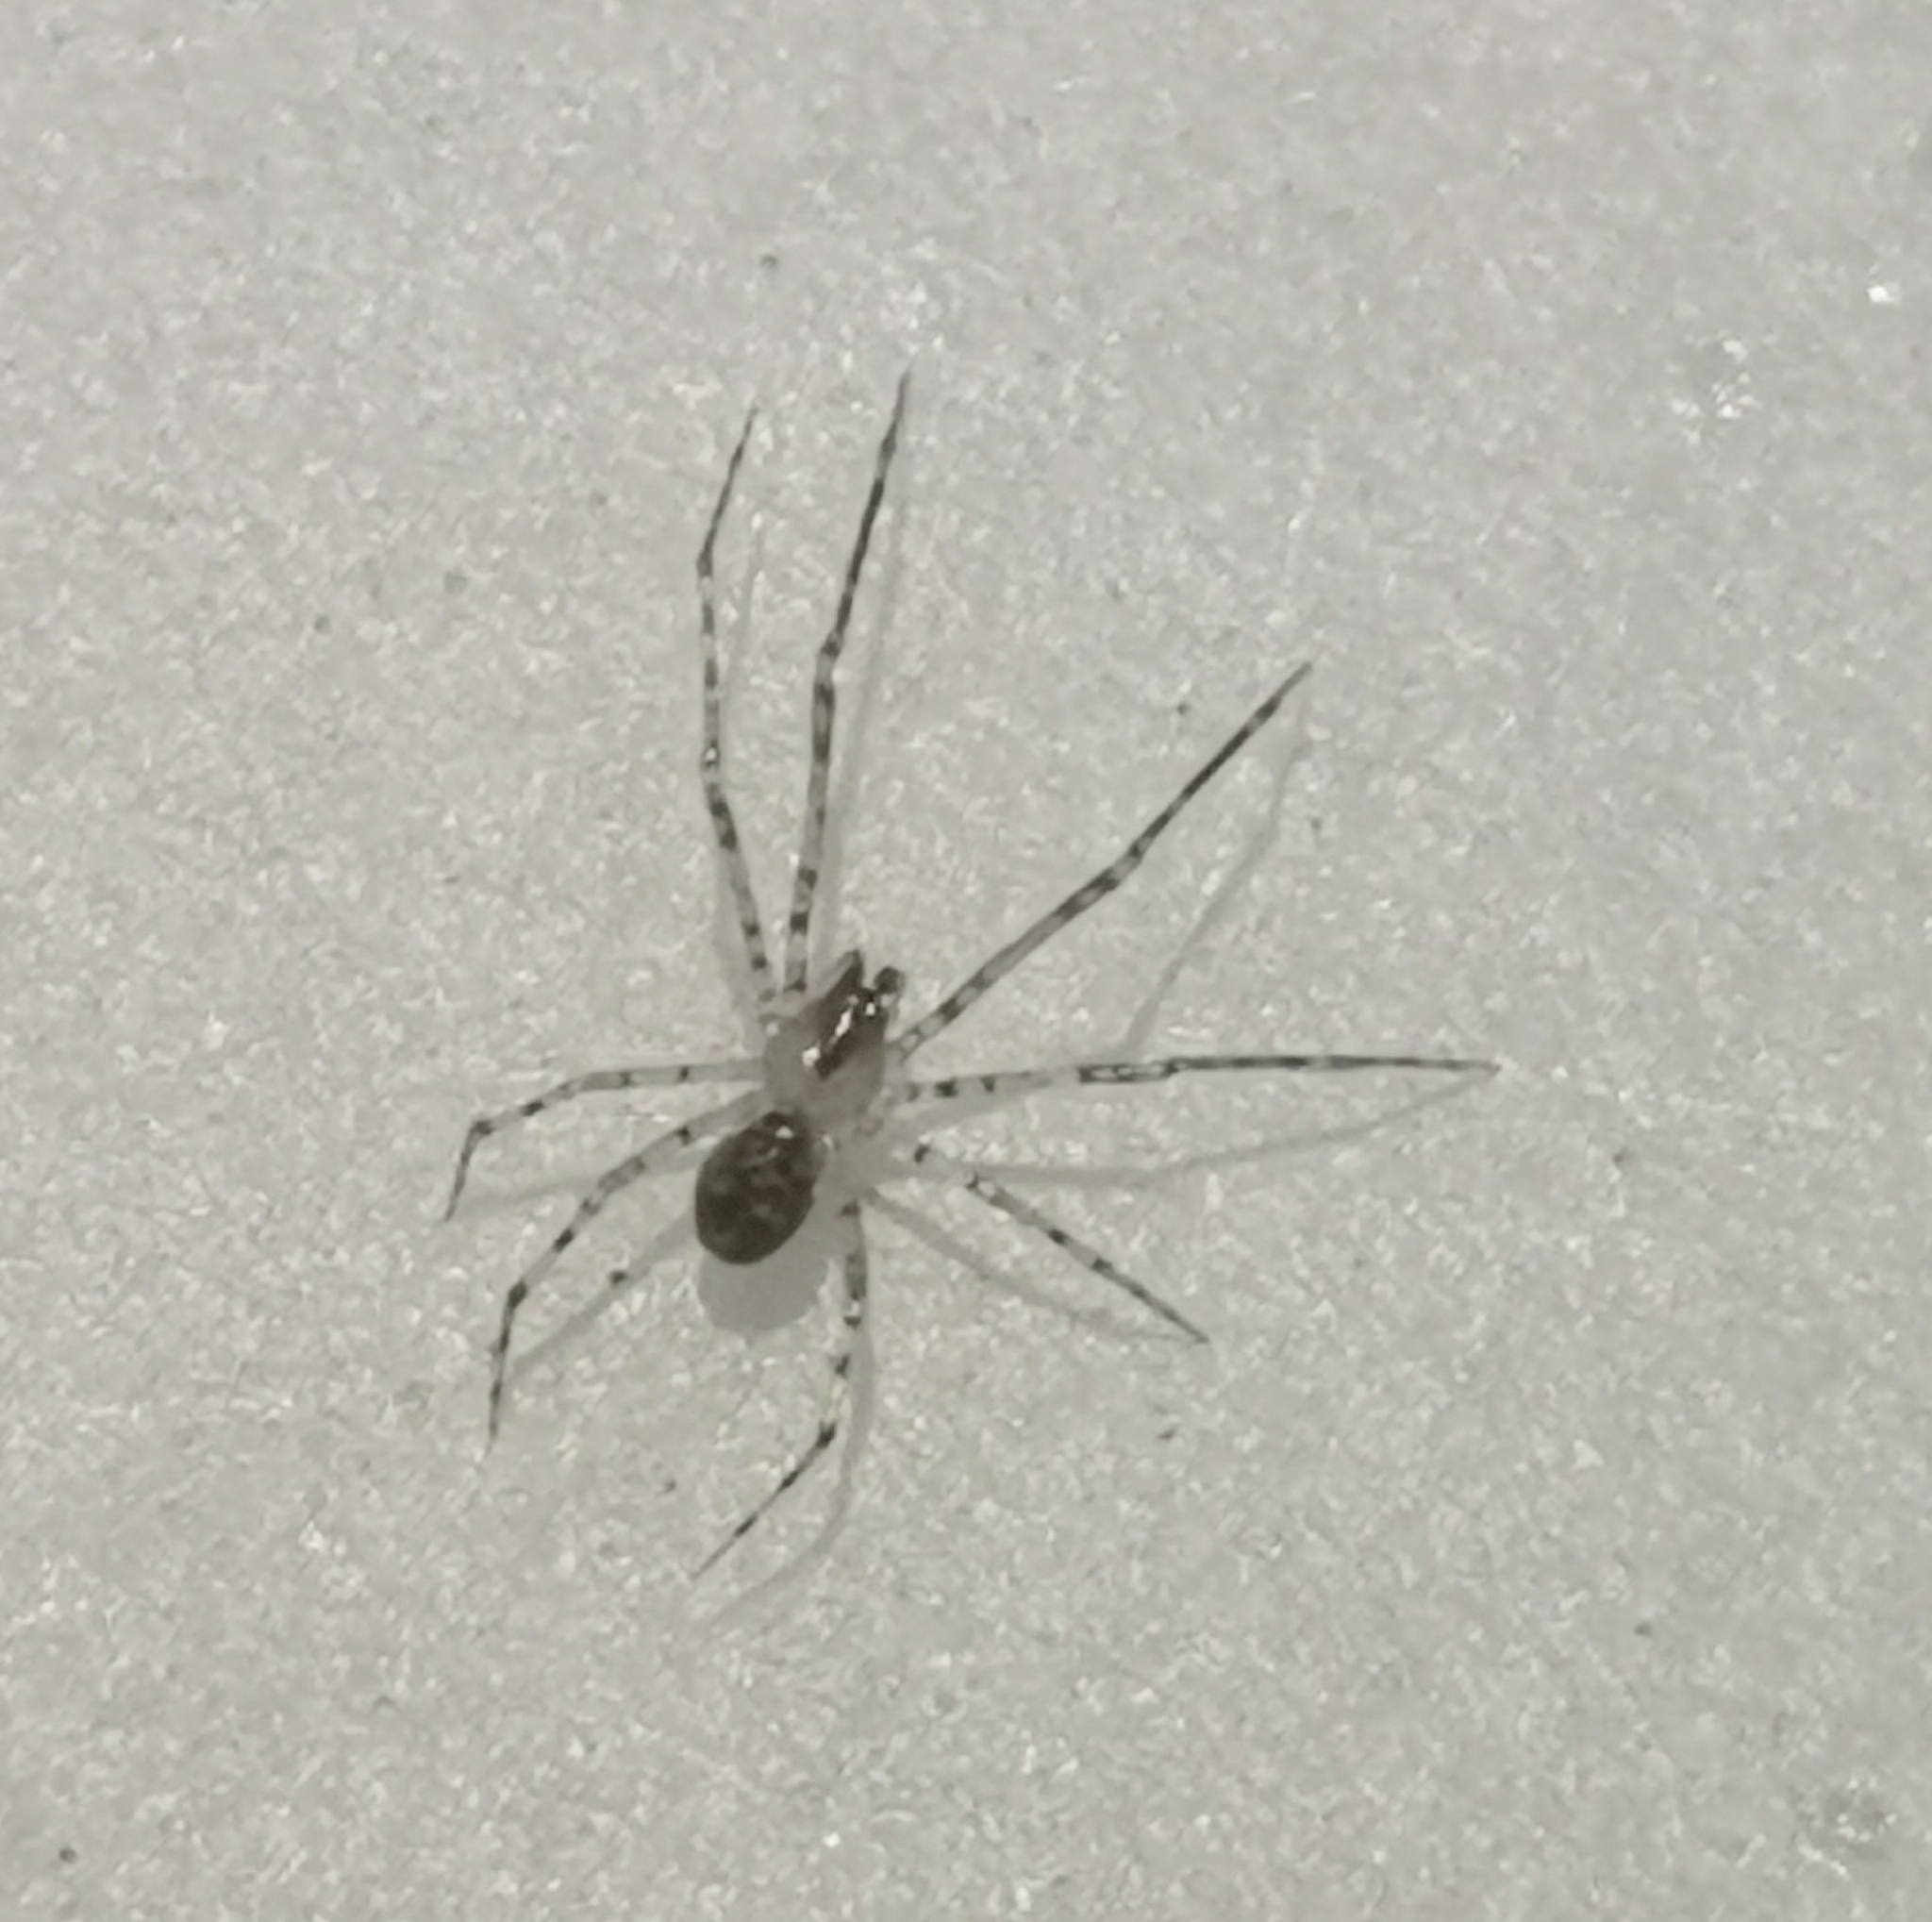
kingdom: Animalia
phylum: Arthropoda
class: Arachnida
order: Araneae
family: Theridiidae
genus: Platnickina
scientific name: Platnickina tincta
